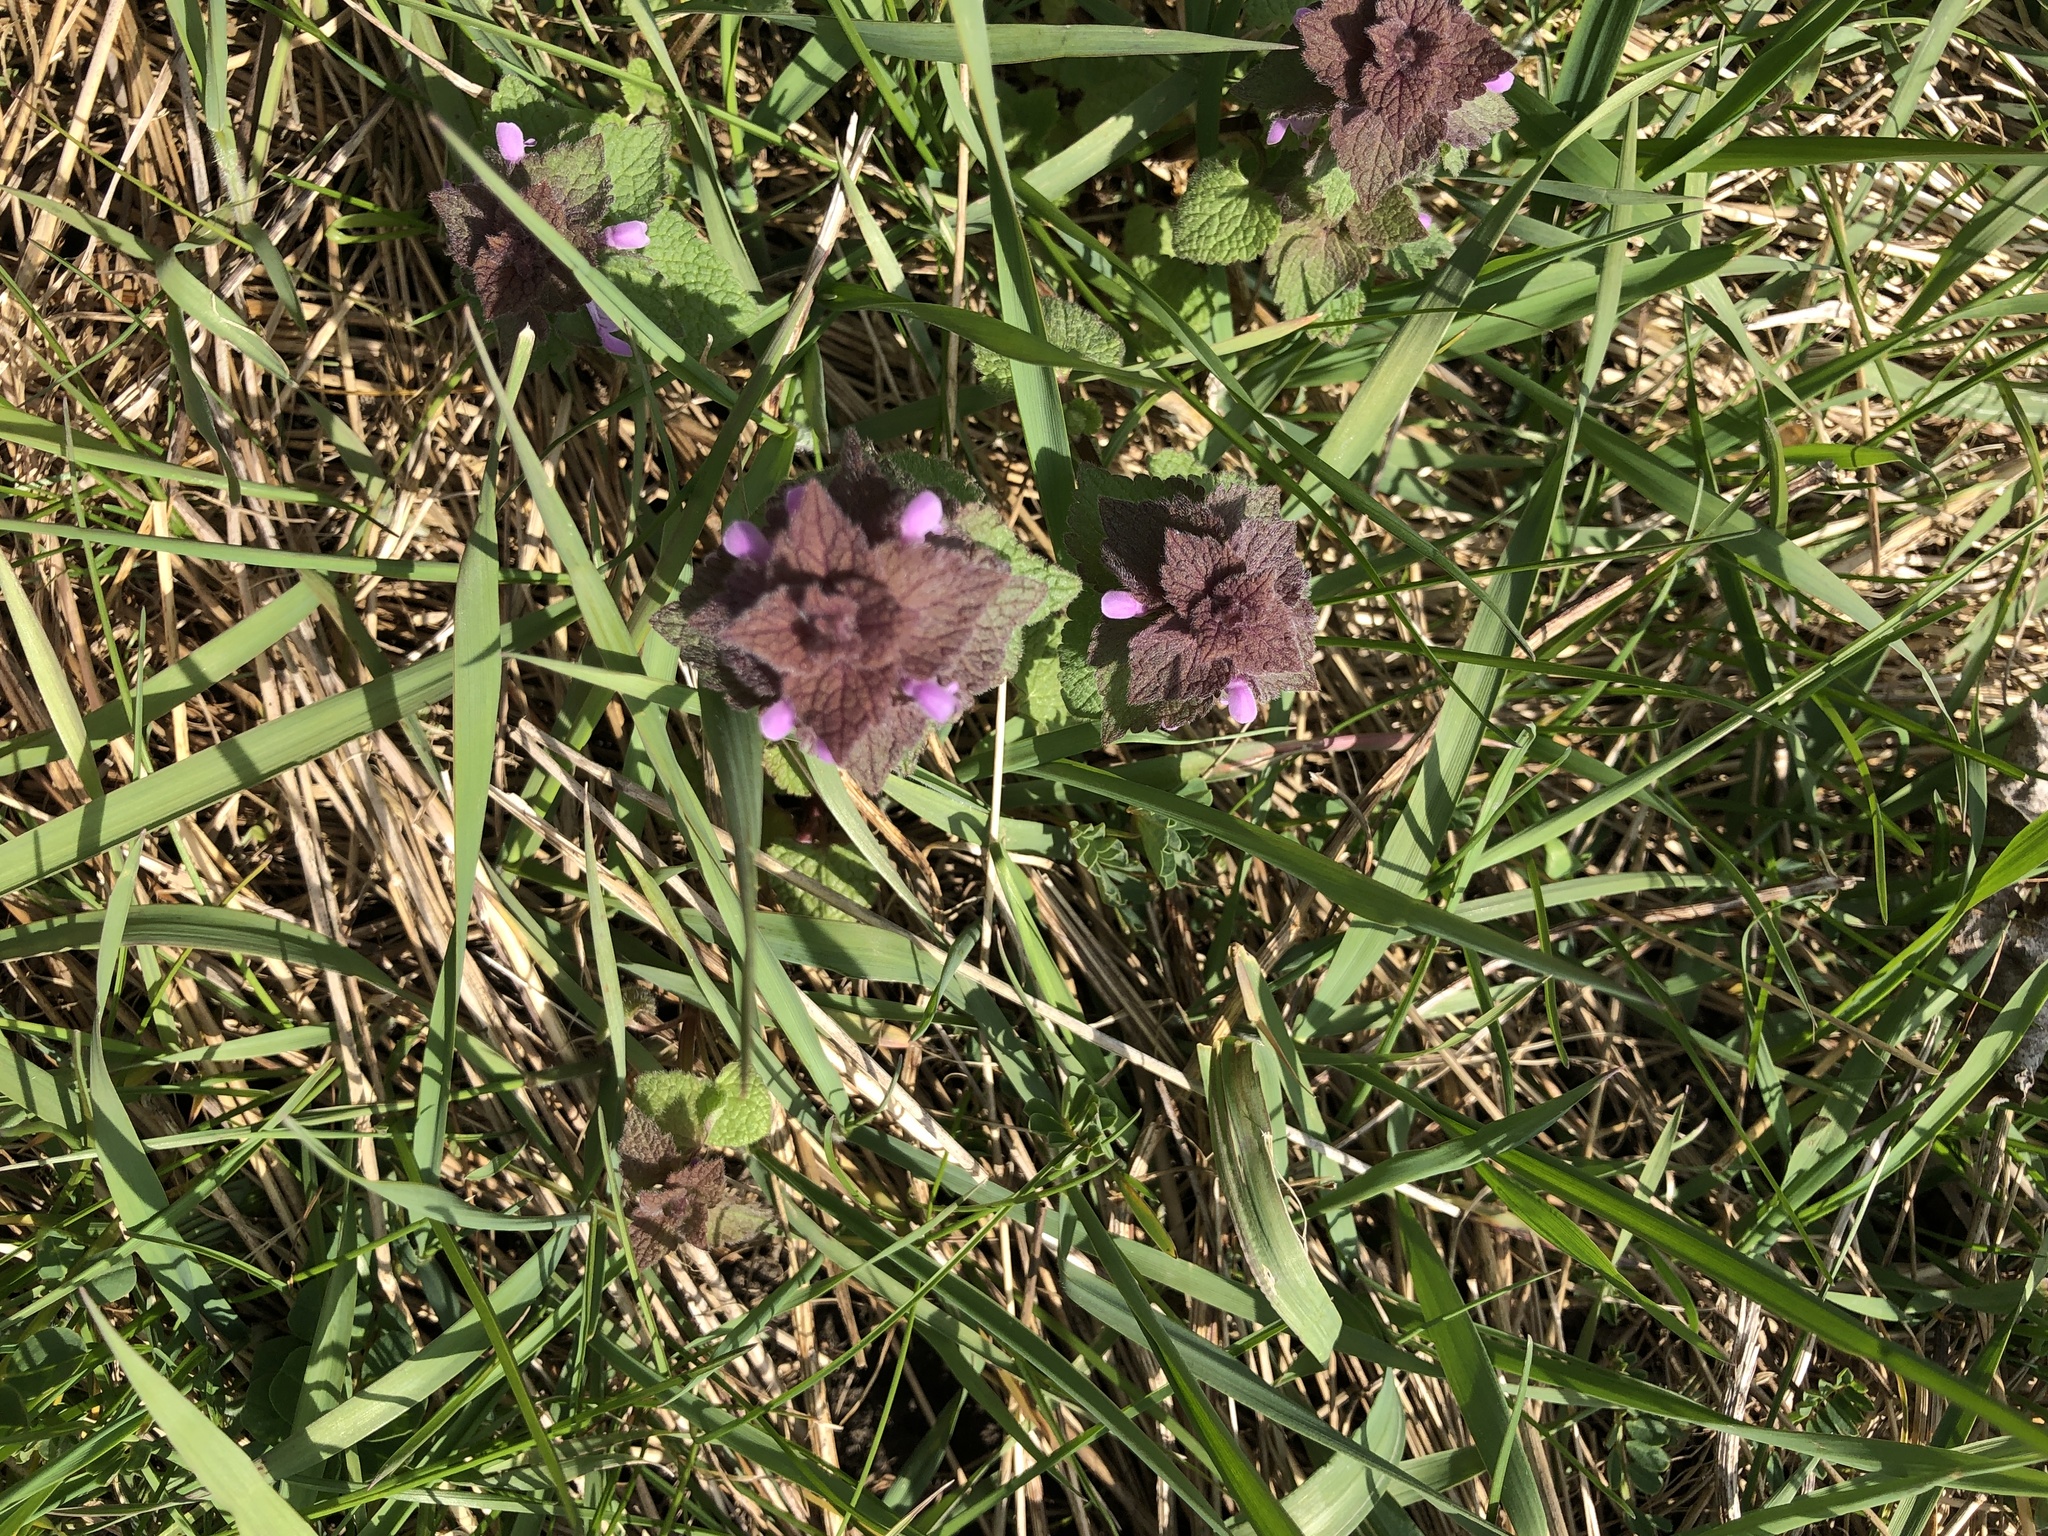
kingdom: Plantae
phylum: Tracheophyta
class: Magnoliopsida
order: Lamiales
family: Lamiaceae
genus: Lamium
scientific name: Lamium purpureum
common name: Red dead-nettle
